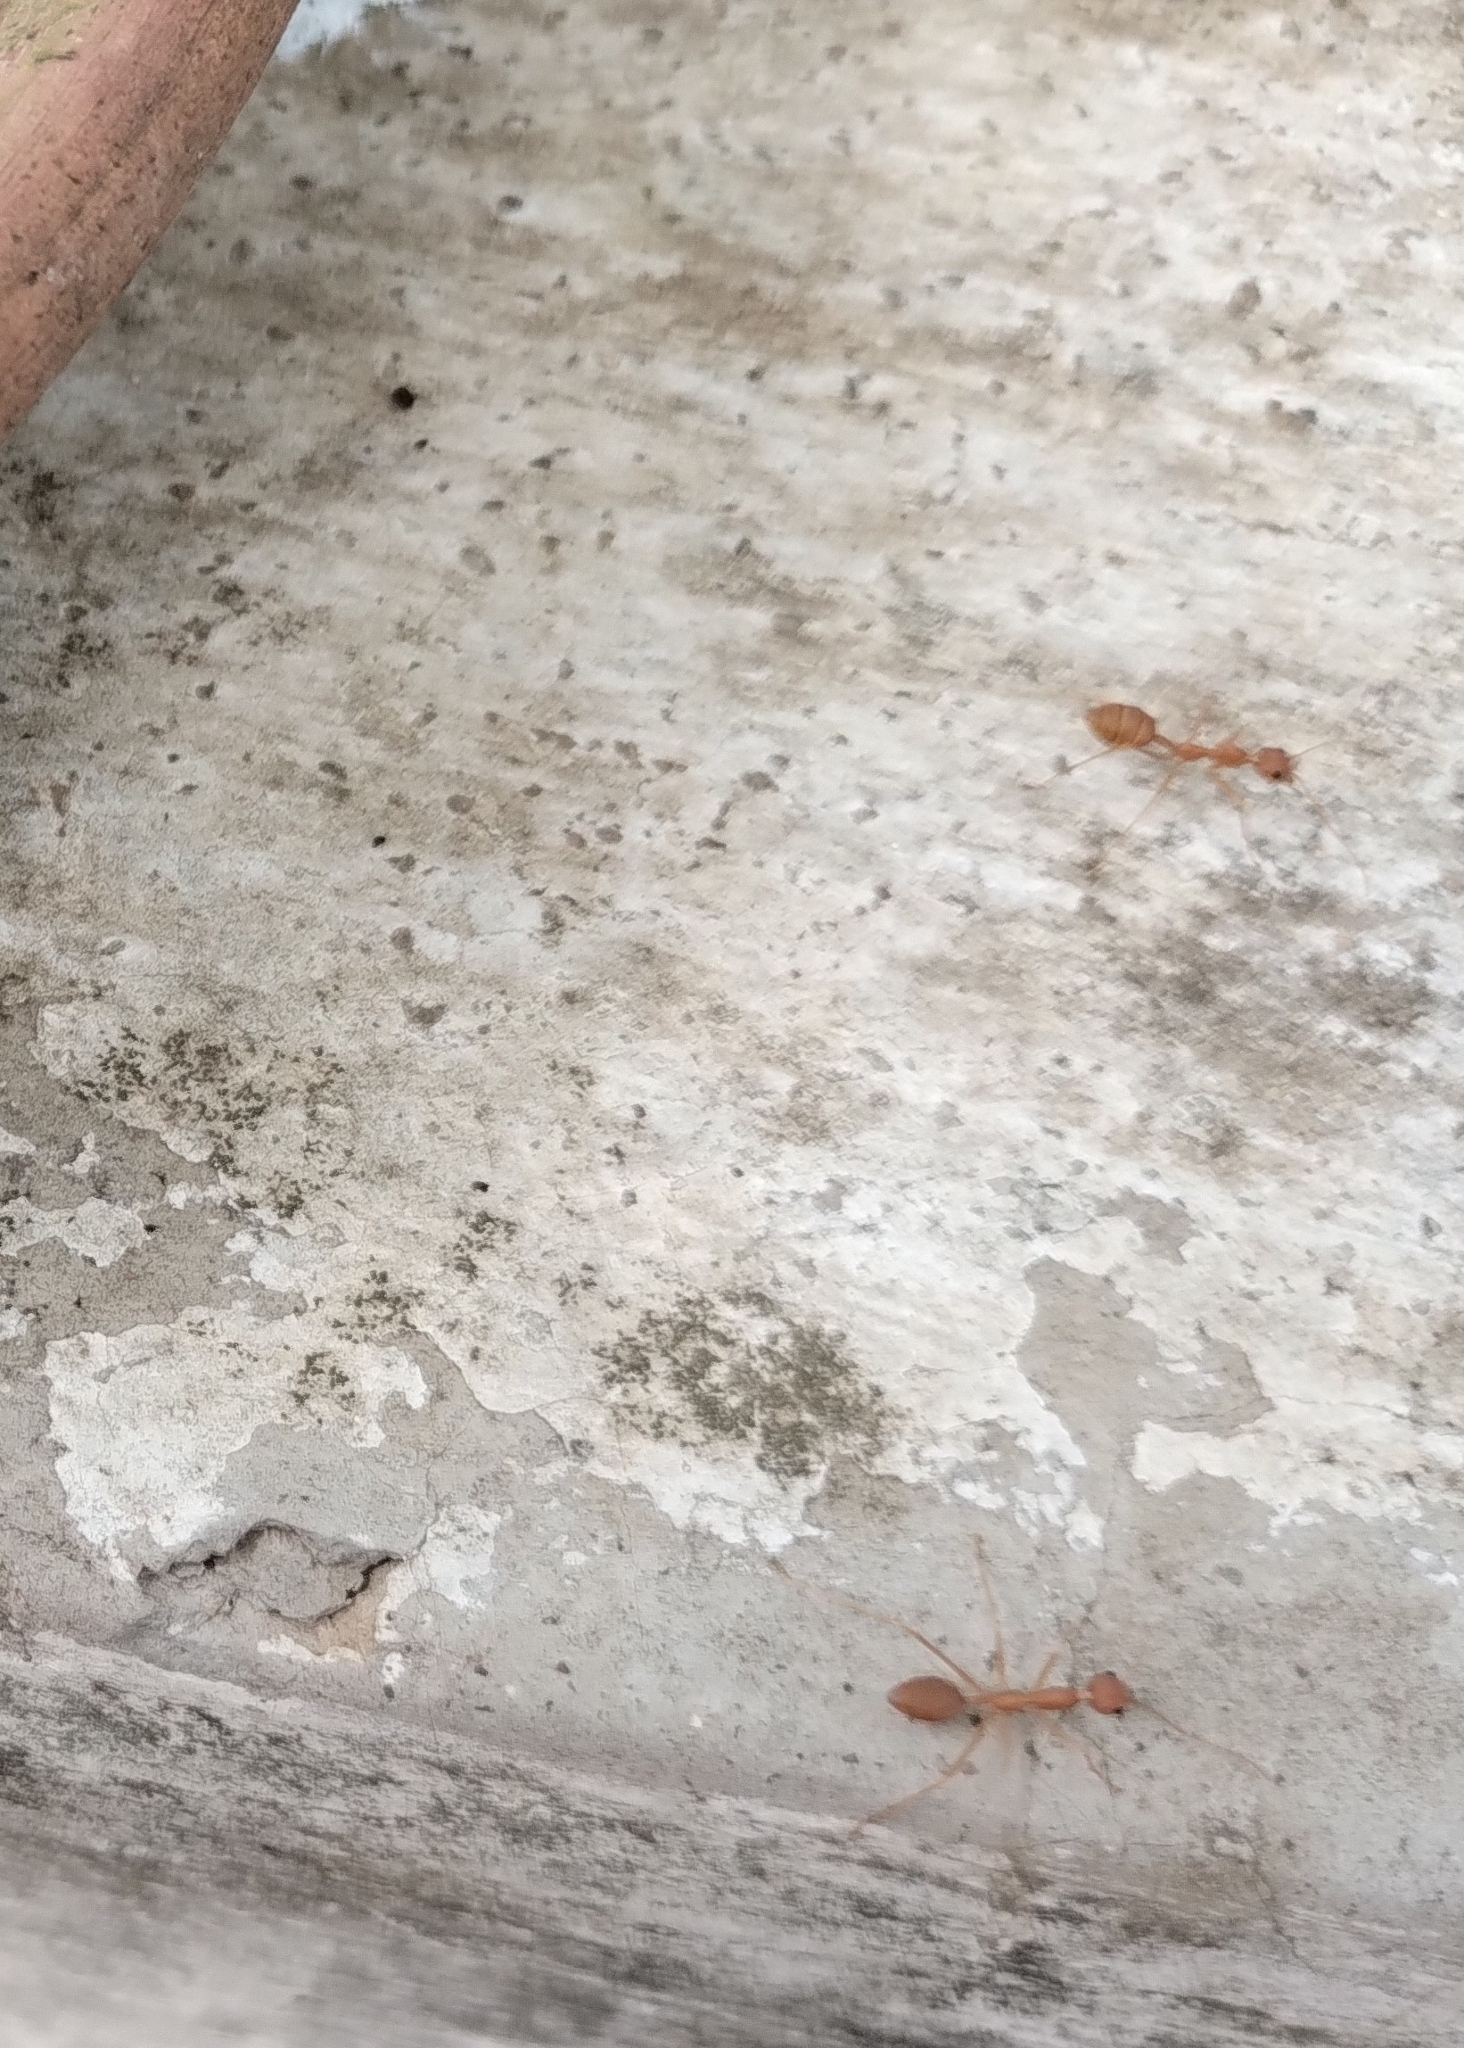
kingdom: Animalia
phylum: Arthropoda
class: Insecta
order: Hymenoptera
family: Formicidae
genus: Oecophylla
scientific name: Oecophylla smaragdina
